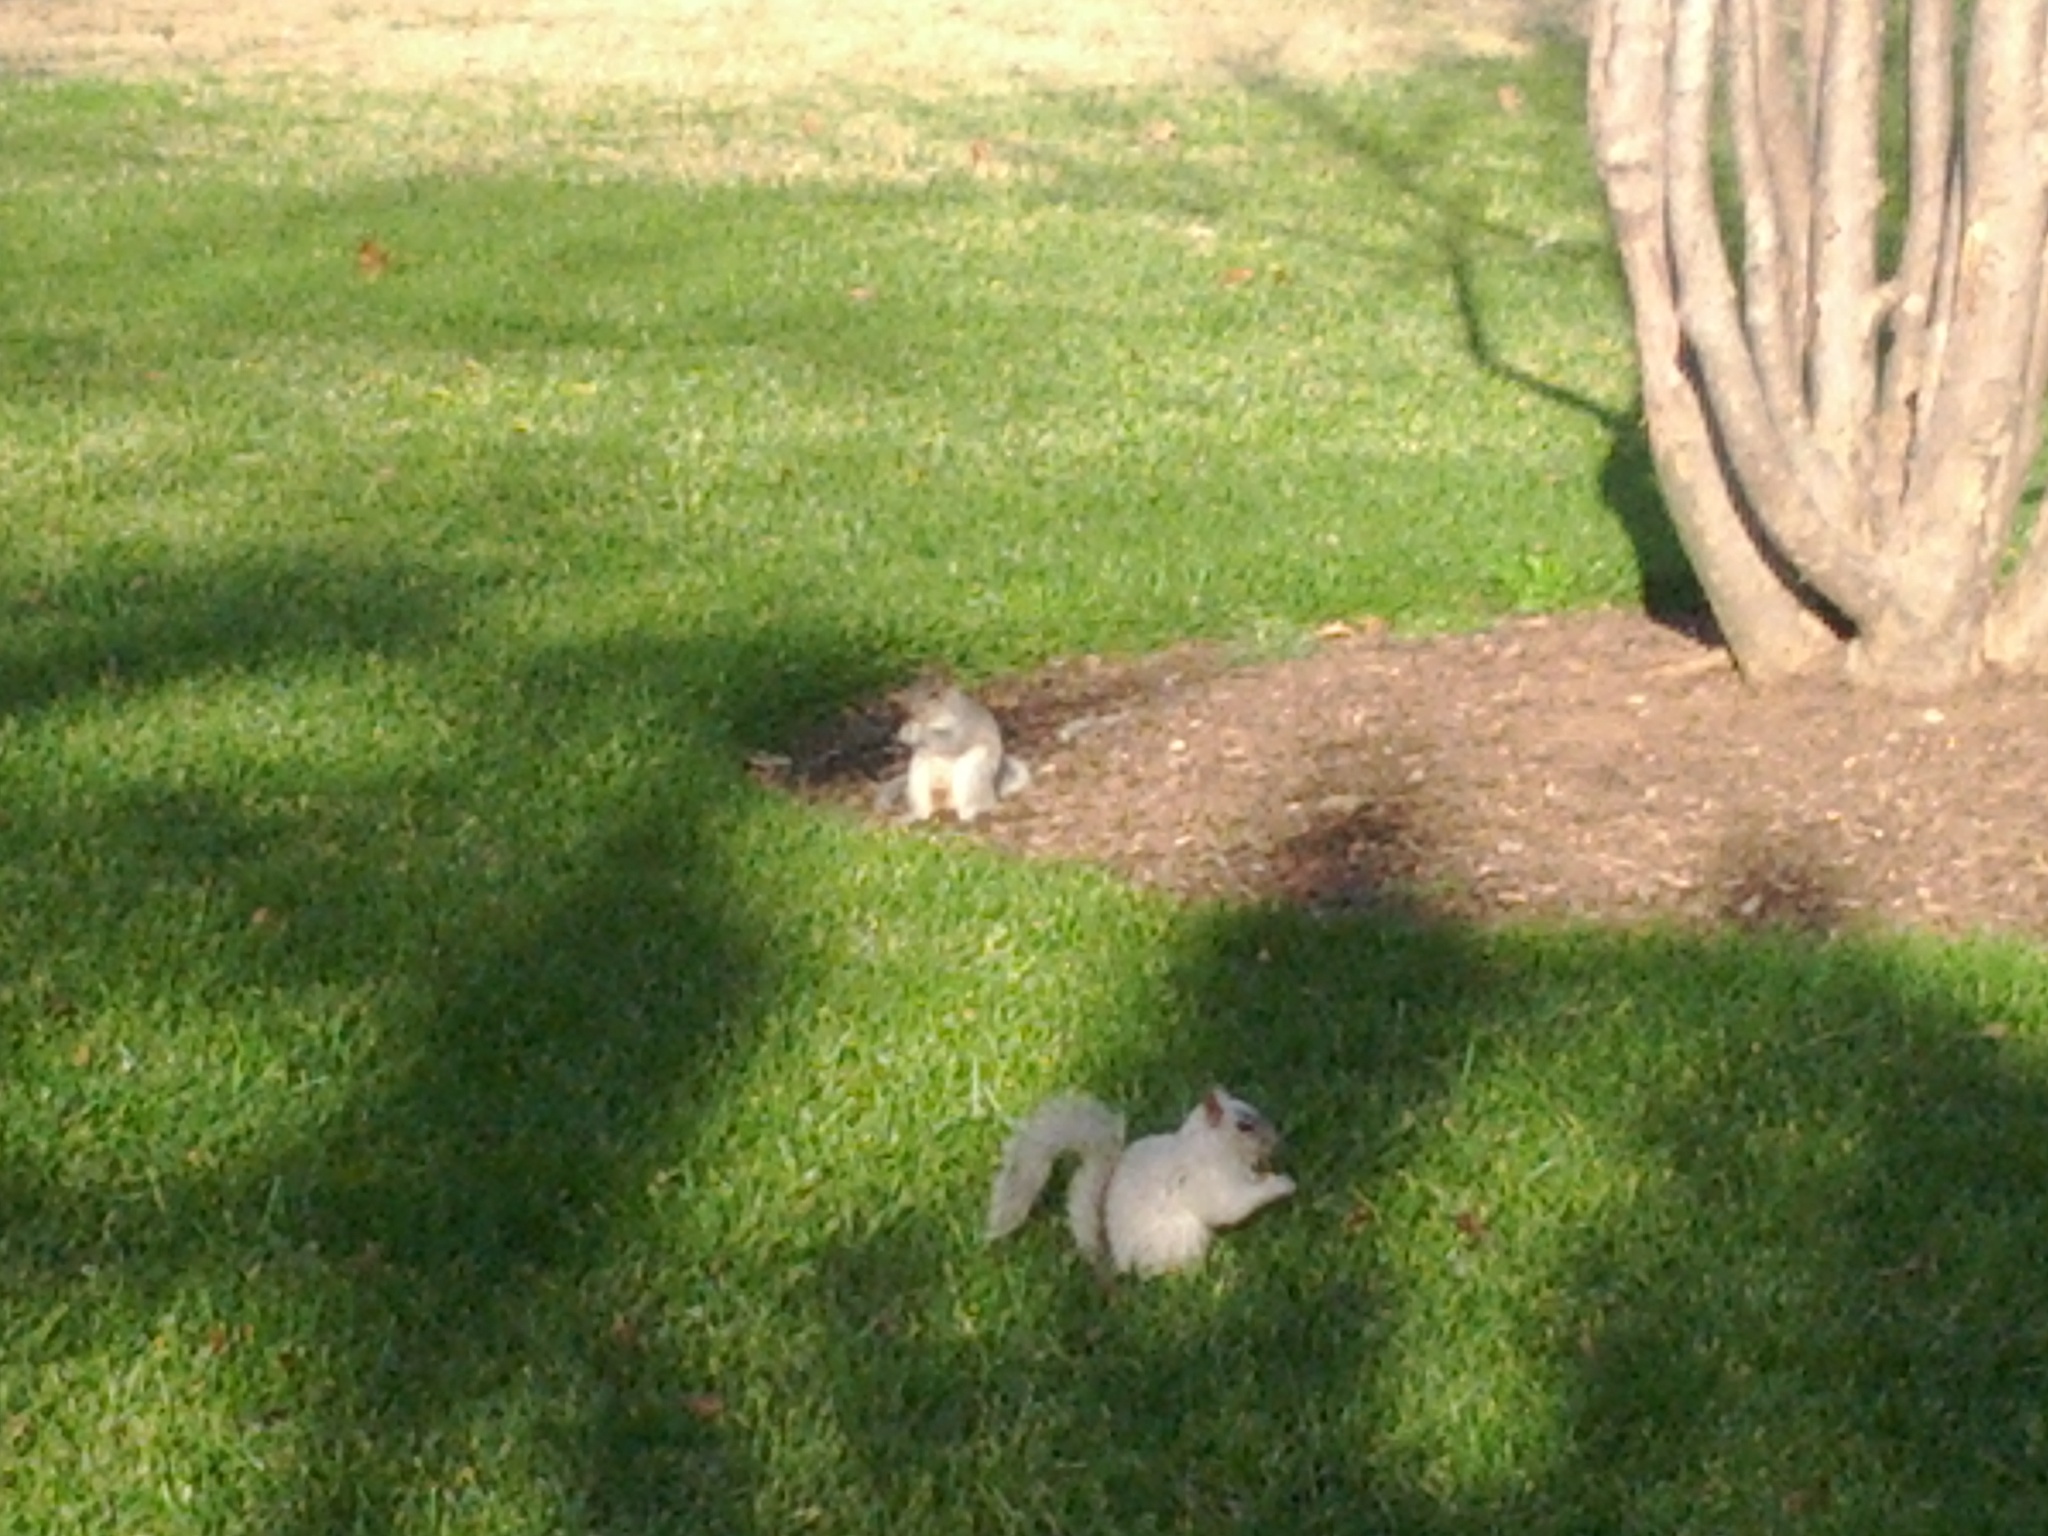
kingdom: Animalia
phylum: Chordata
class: Mammalia
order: Rodentia
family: Sciuridae
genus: Sciurus
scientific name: Sciurus carolinensis
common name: Eastern gray squirrel
